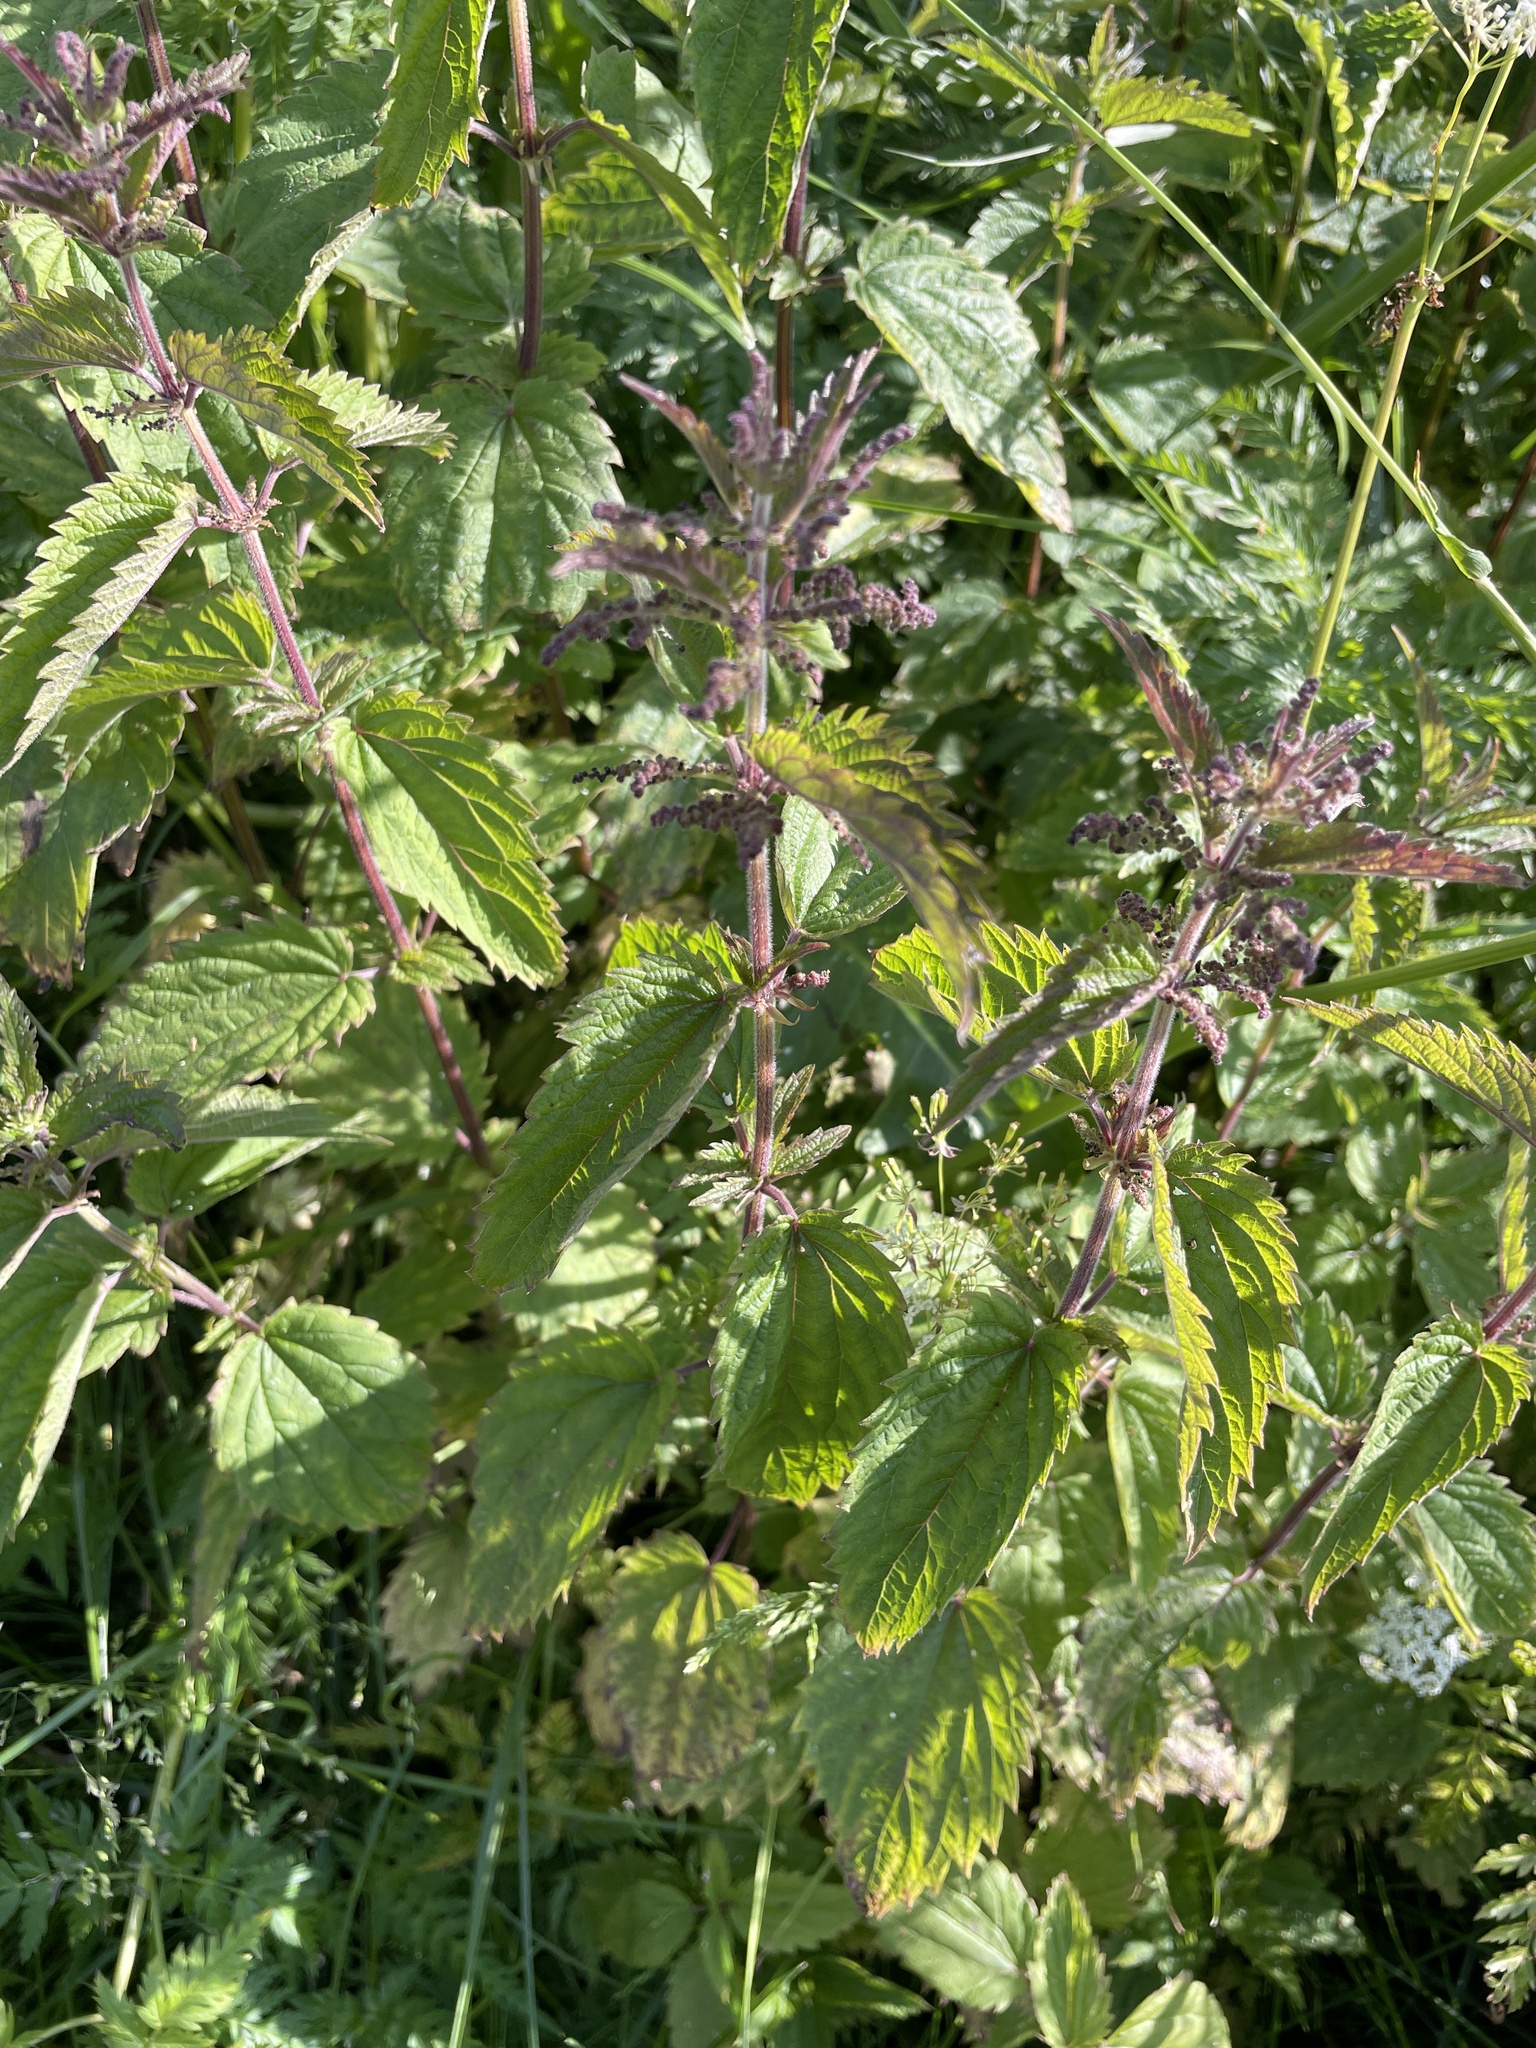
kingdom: Plantae
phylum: Tracheophyta
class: Magnoliopsida
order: Rosales
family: Urticaceae
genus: Urtica
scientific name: Urtica dioica
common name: Common nettle
